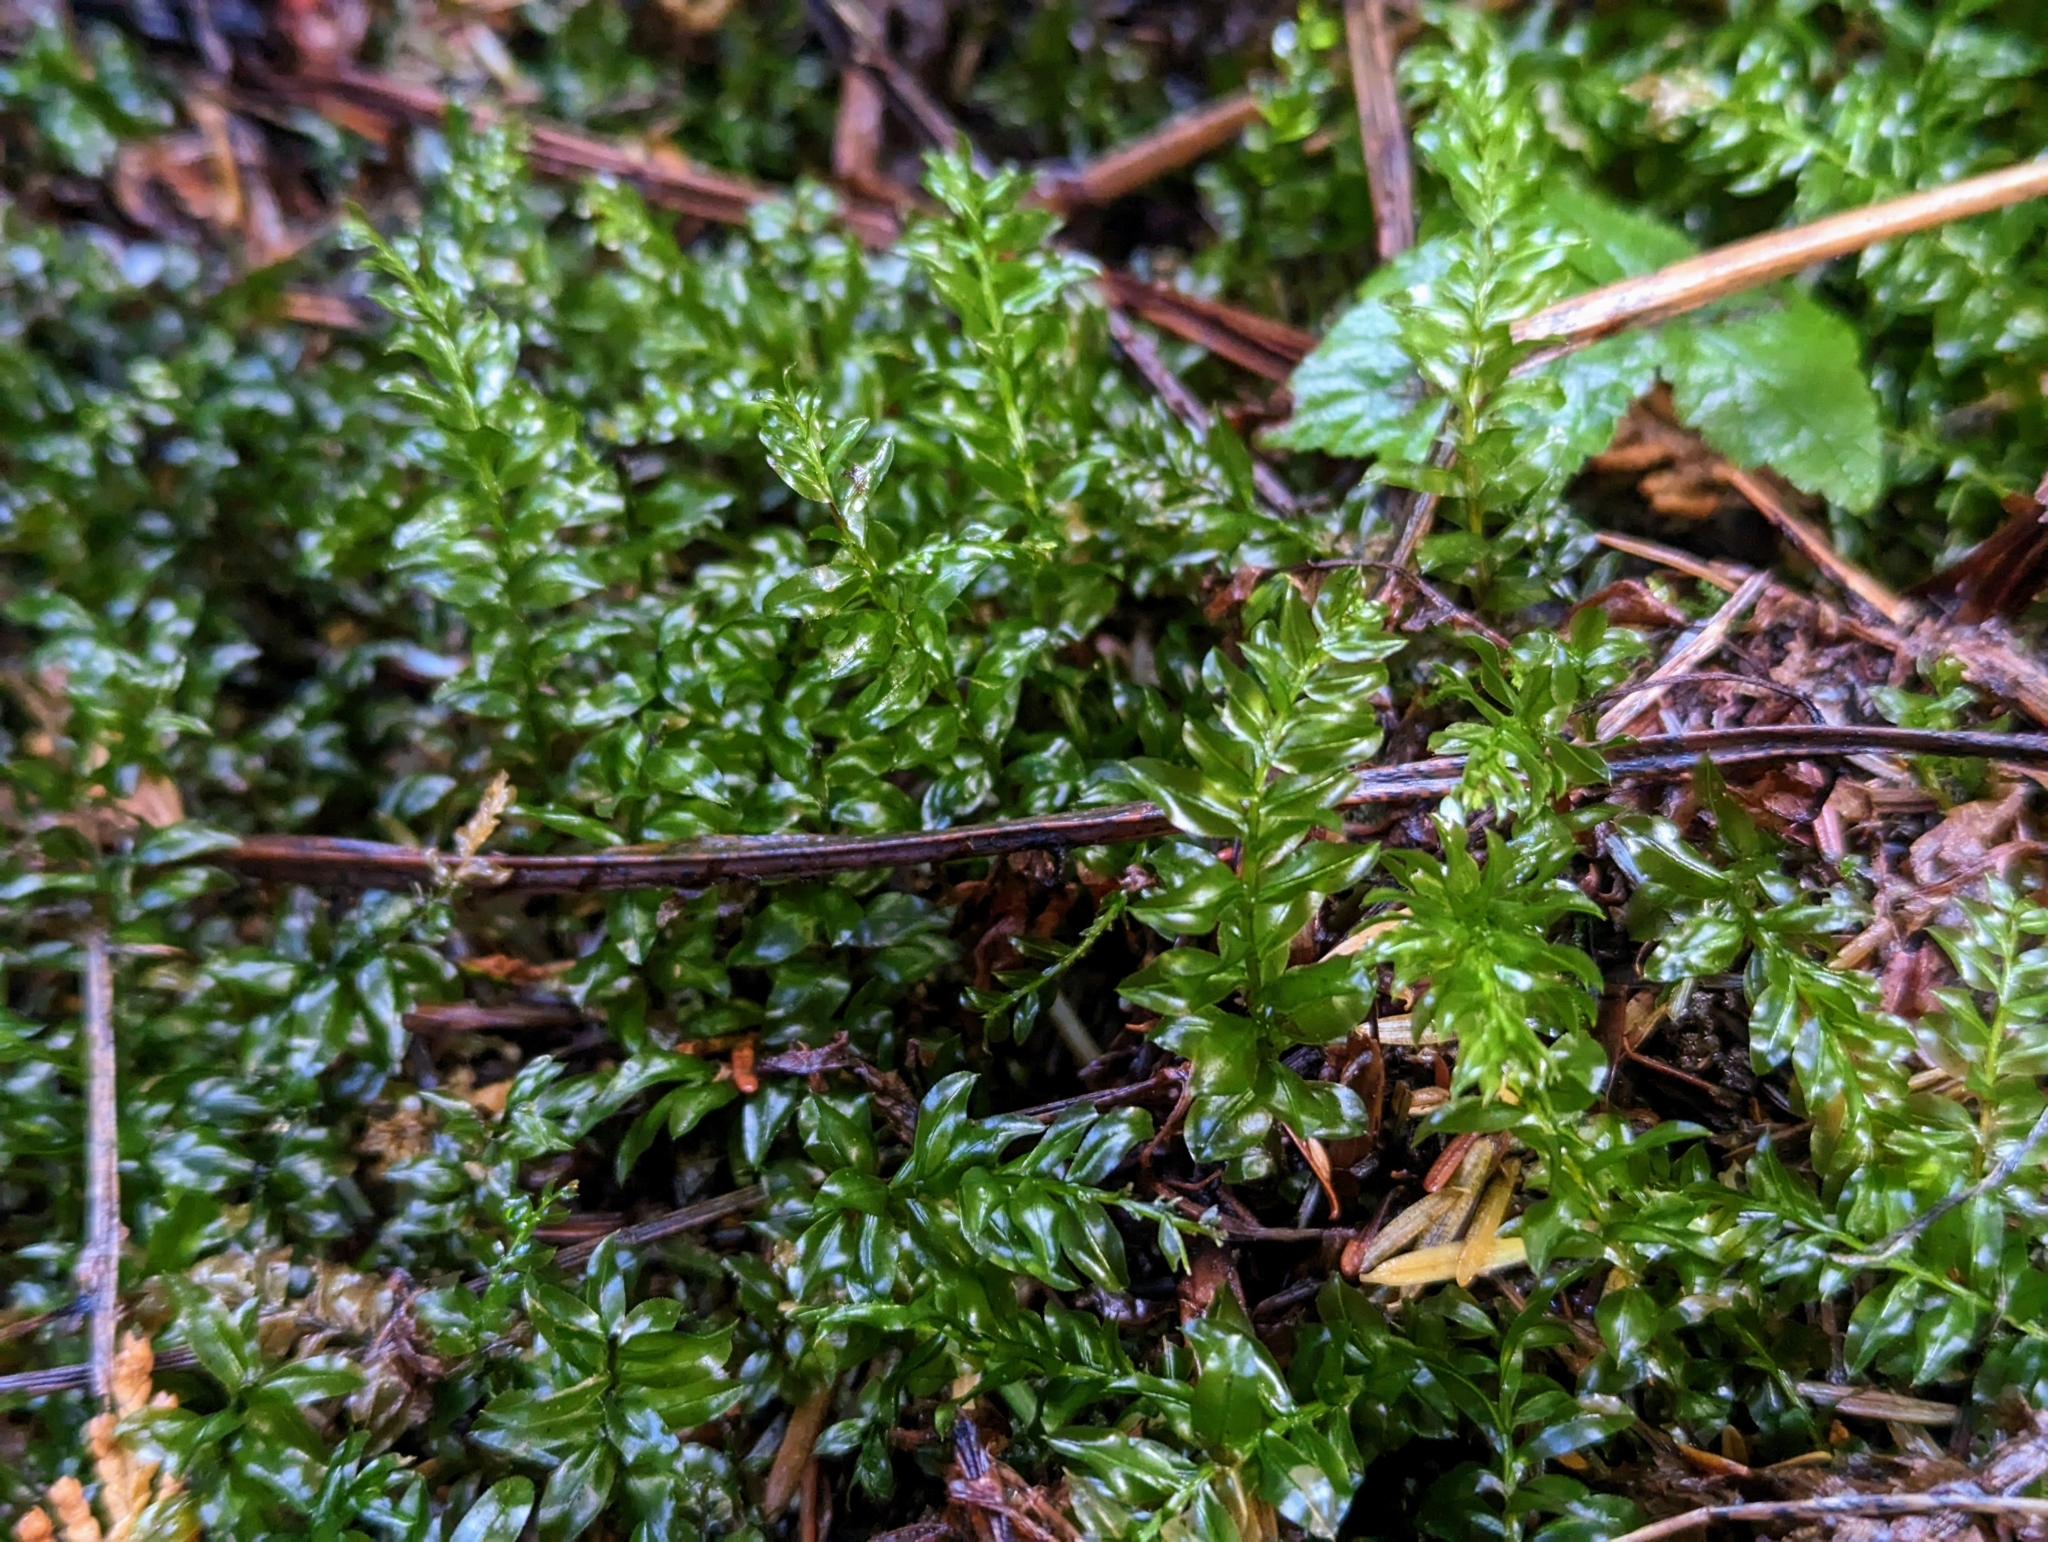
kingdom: Plantae
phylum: Bryophyta
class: Bryopsida
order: Bryales
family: Mniaceae
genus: Plagiomnium
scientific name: Plagiomnium insigne
